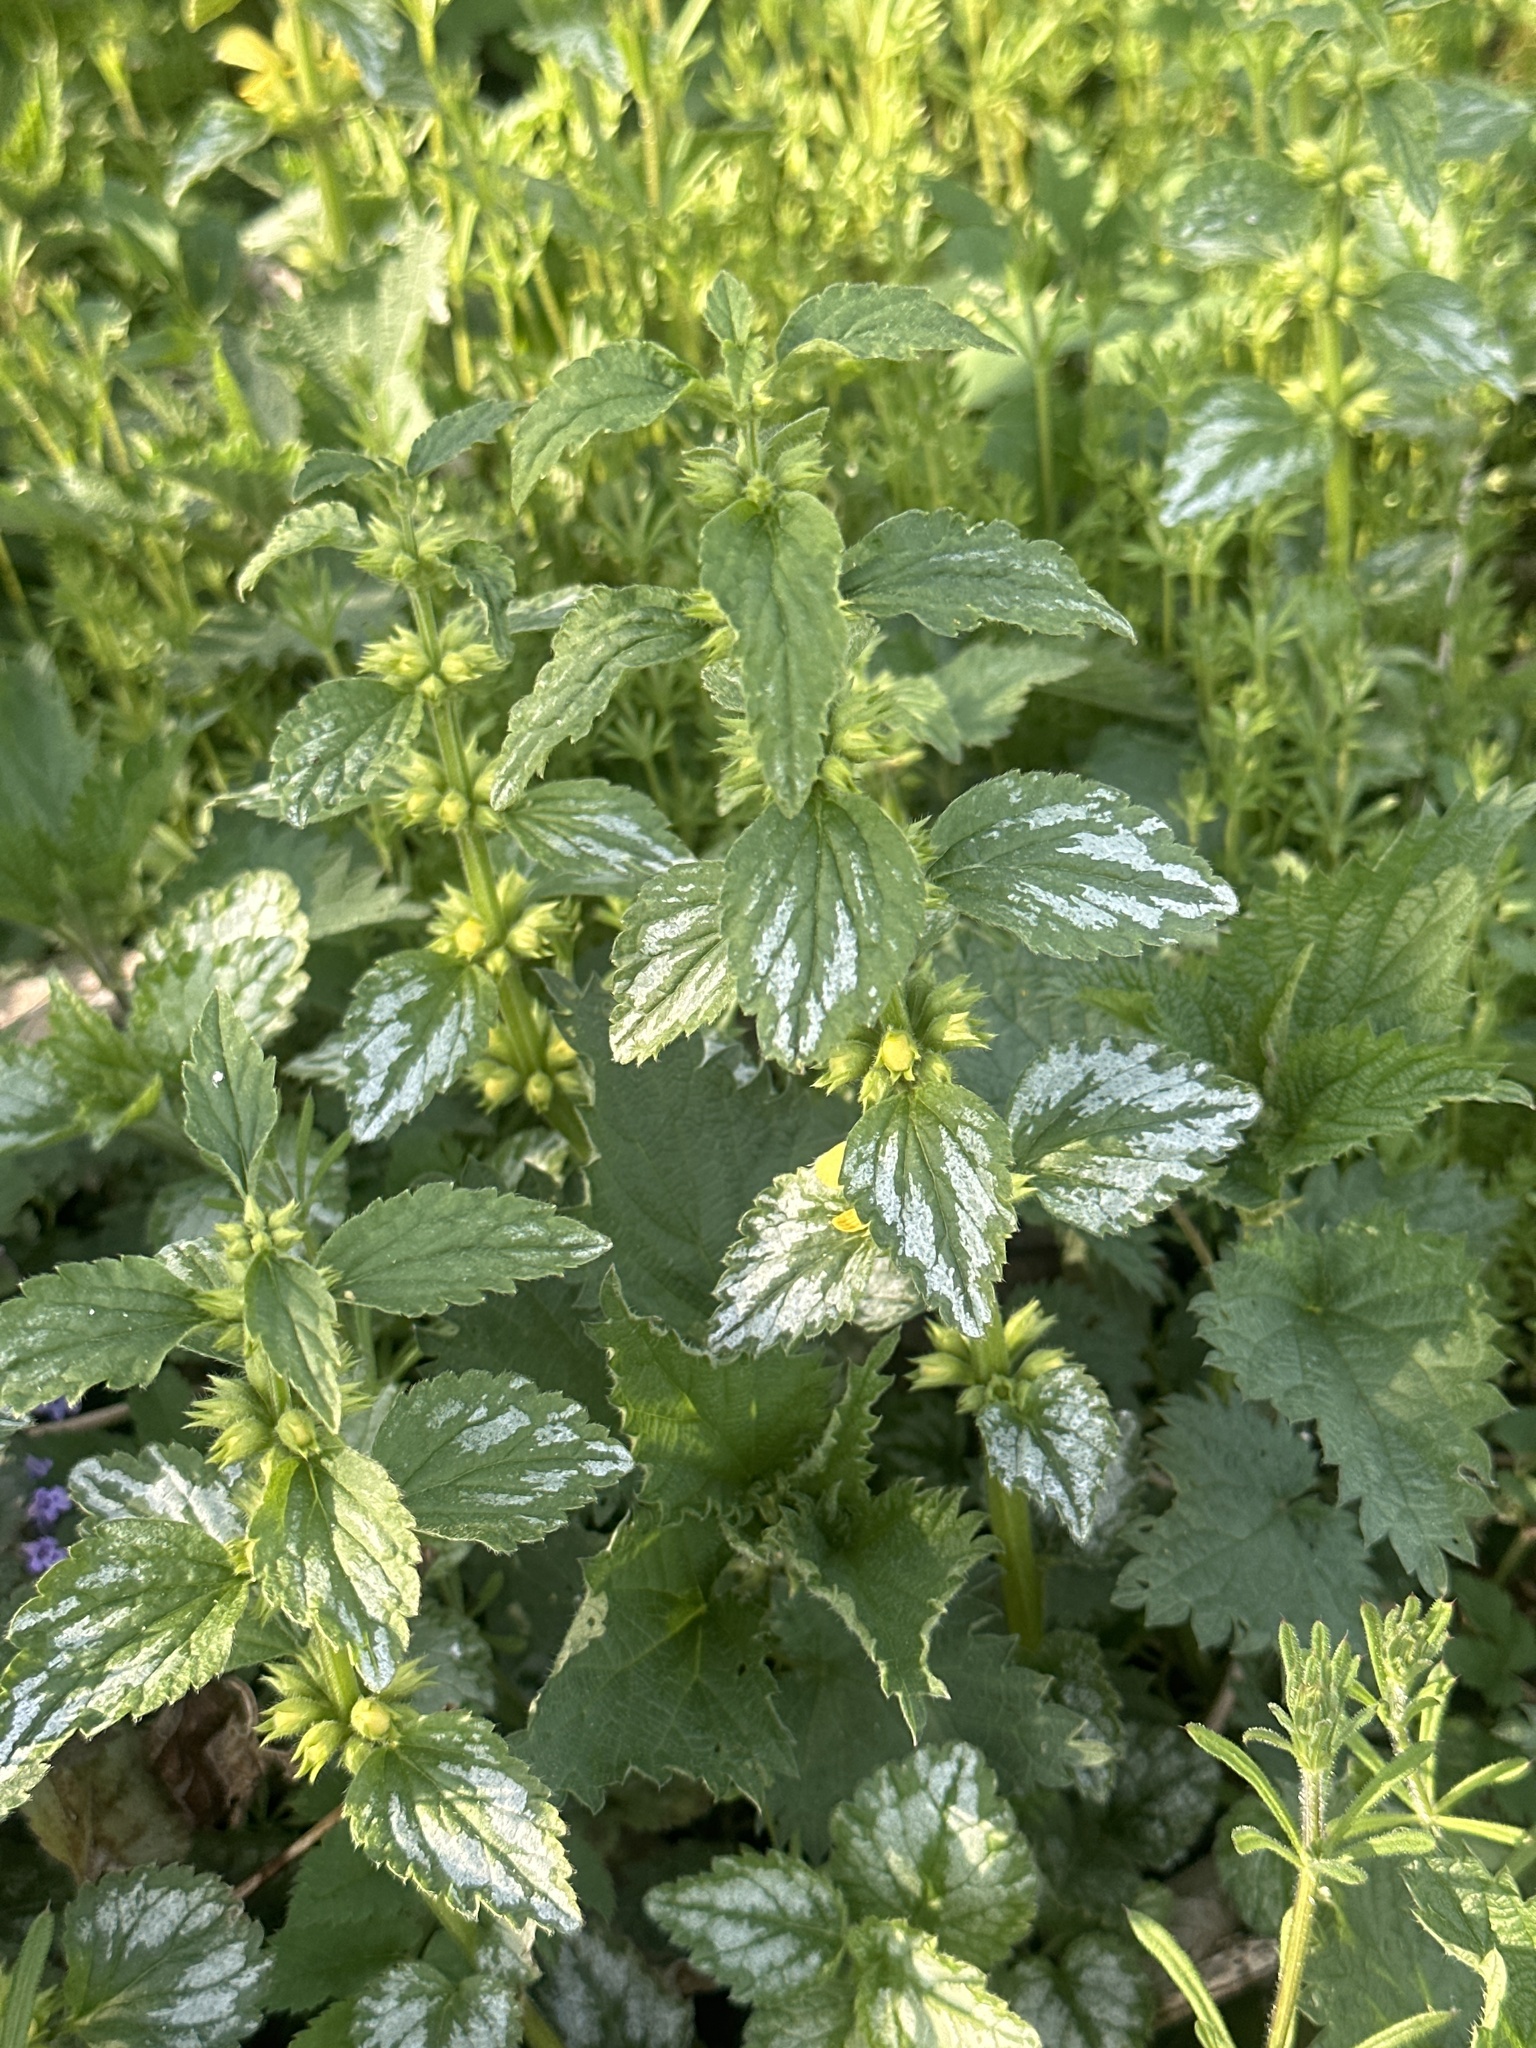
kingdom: Plantae
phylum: Tracheophyta
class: Magnoliopsida
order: Lamiales
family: Lamiaceae
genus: Lamium
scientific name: Lamium galeobdolon
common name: Yellow archangel
